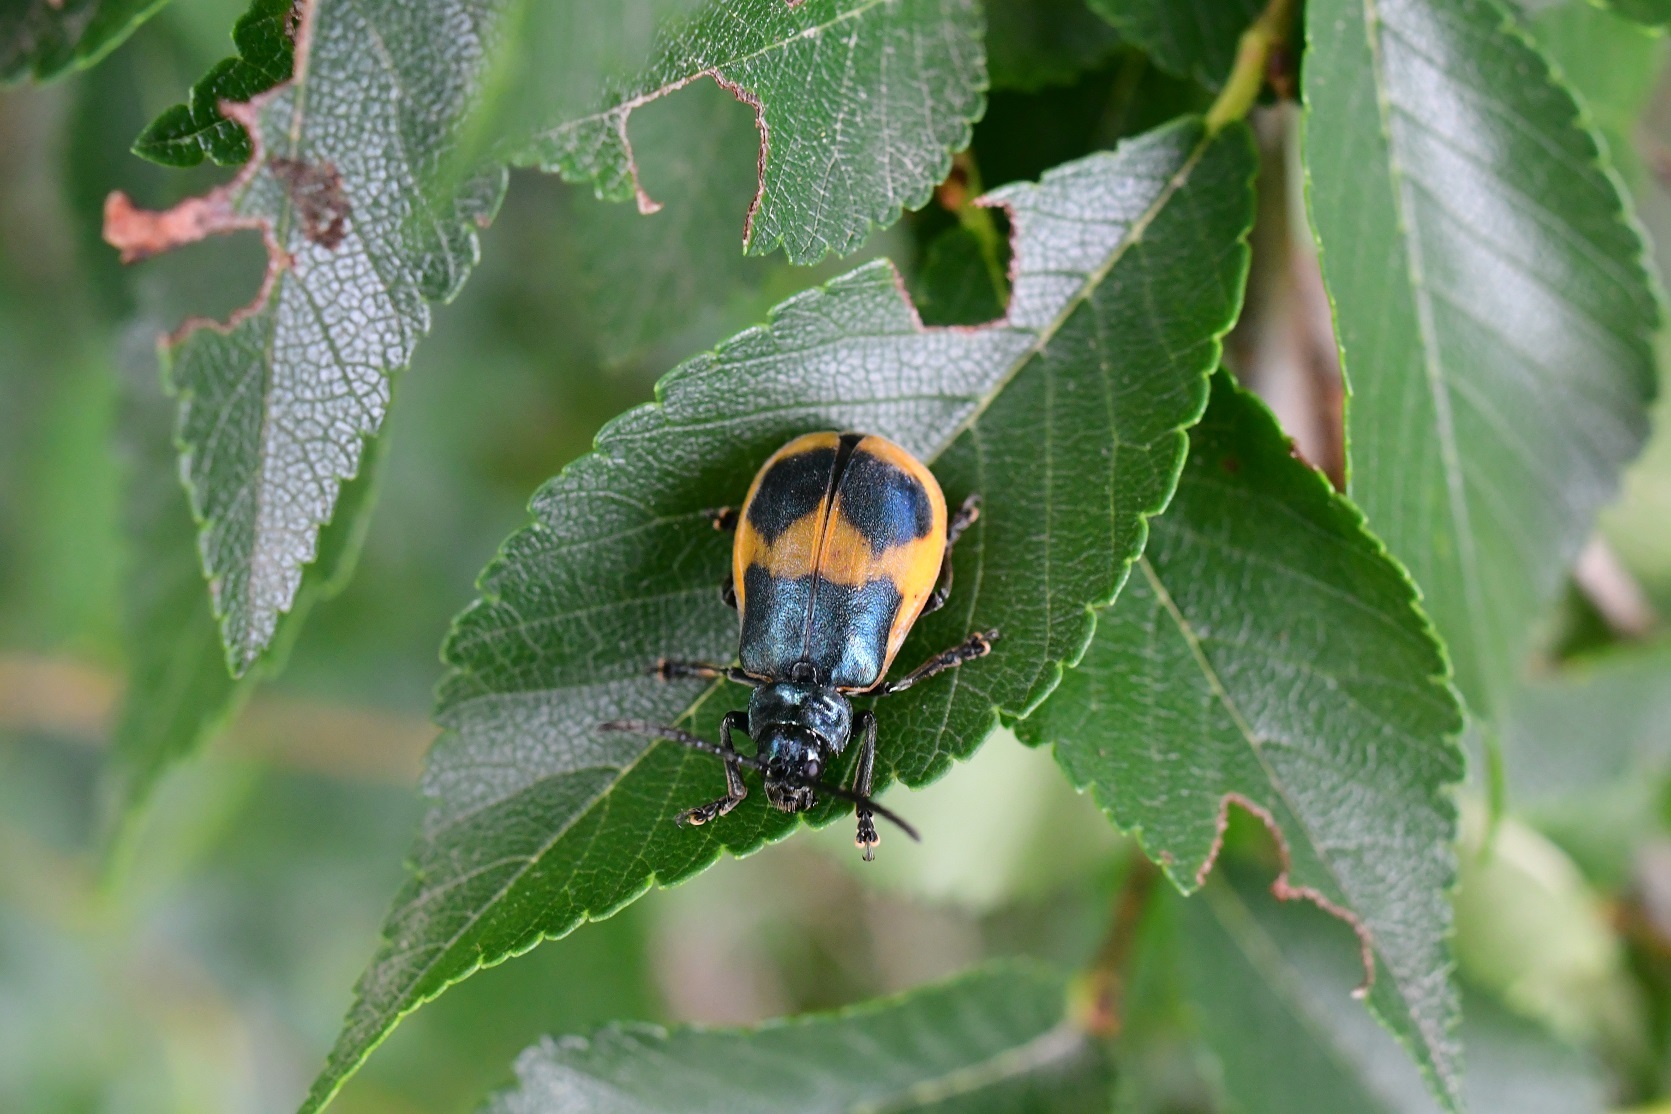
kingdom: Animalia
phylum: Arthropoda
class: Insecta
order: Coleoptera
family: Chrysomelidae
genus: Monocesta
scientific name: Monocesta
